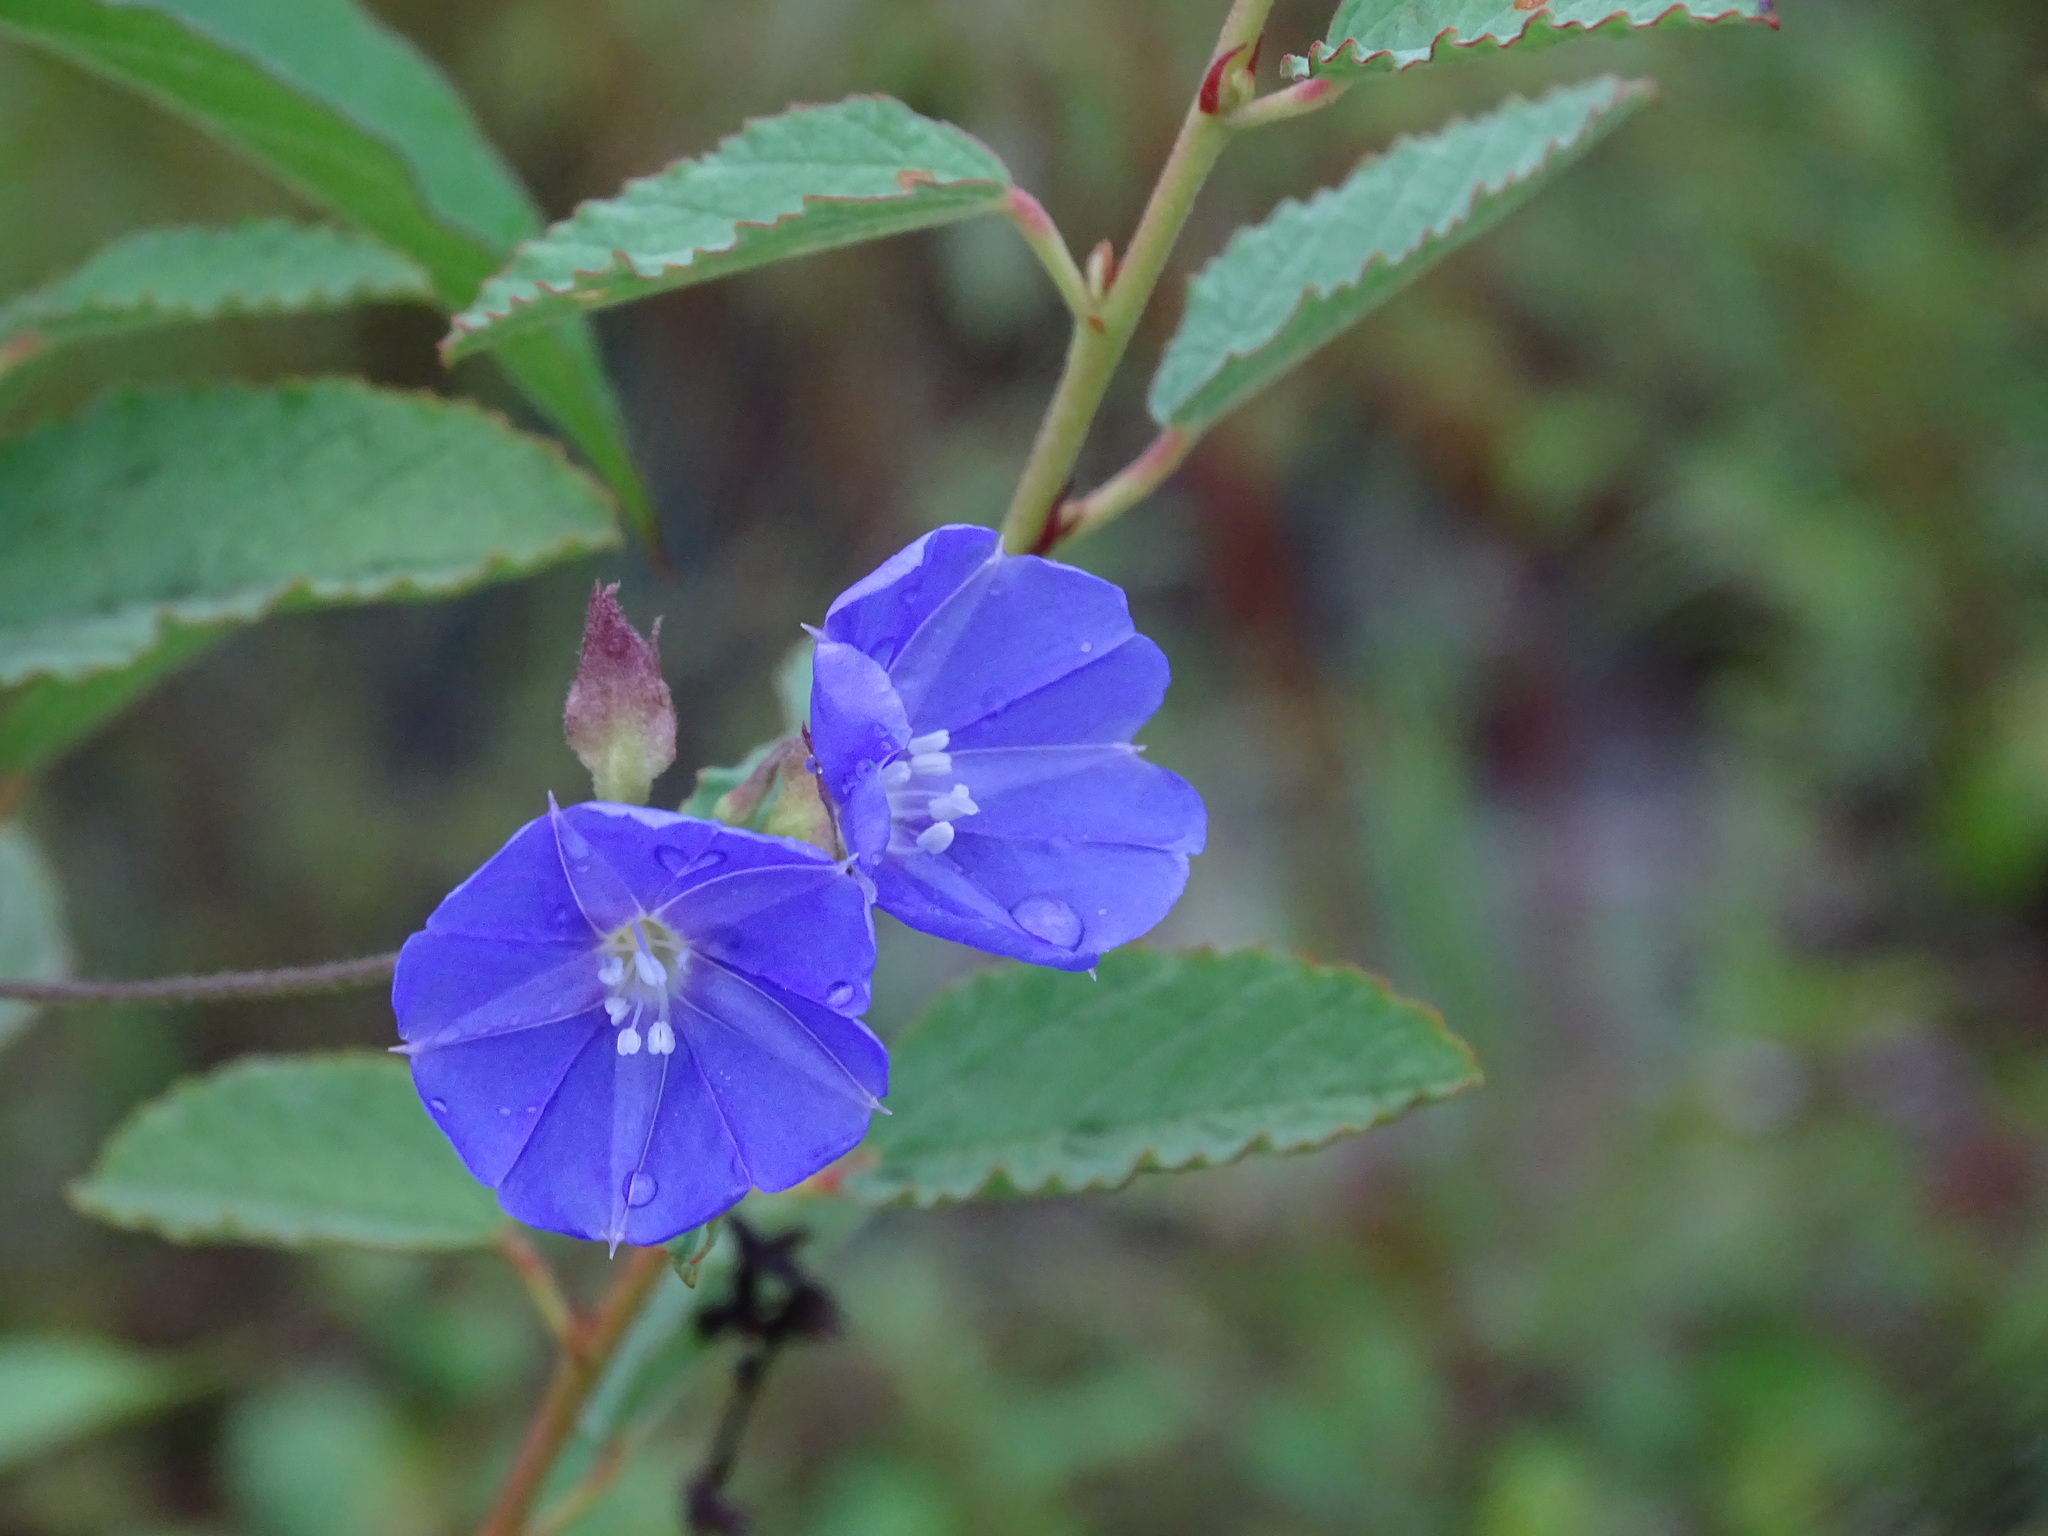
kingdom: Plantae
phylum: Tracheophyta
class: Magnoliopsida
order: Solanales
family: Convolvulaceae
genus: Jacquemontia
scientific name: Jacquemontia pentanthos
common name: Skyblue clustervine
